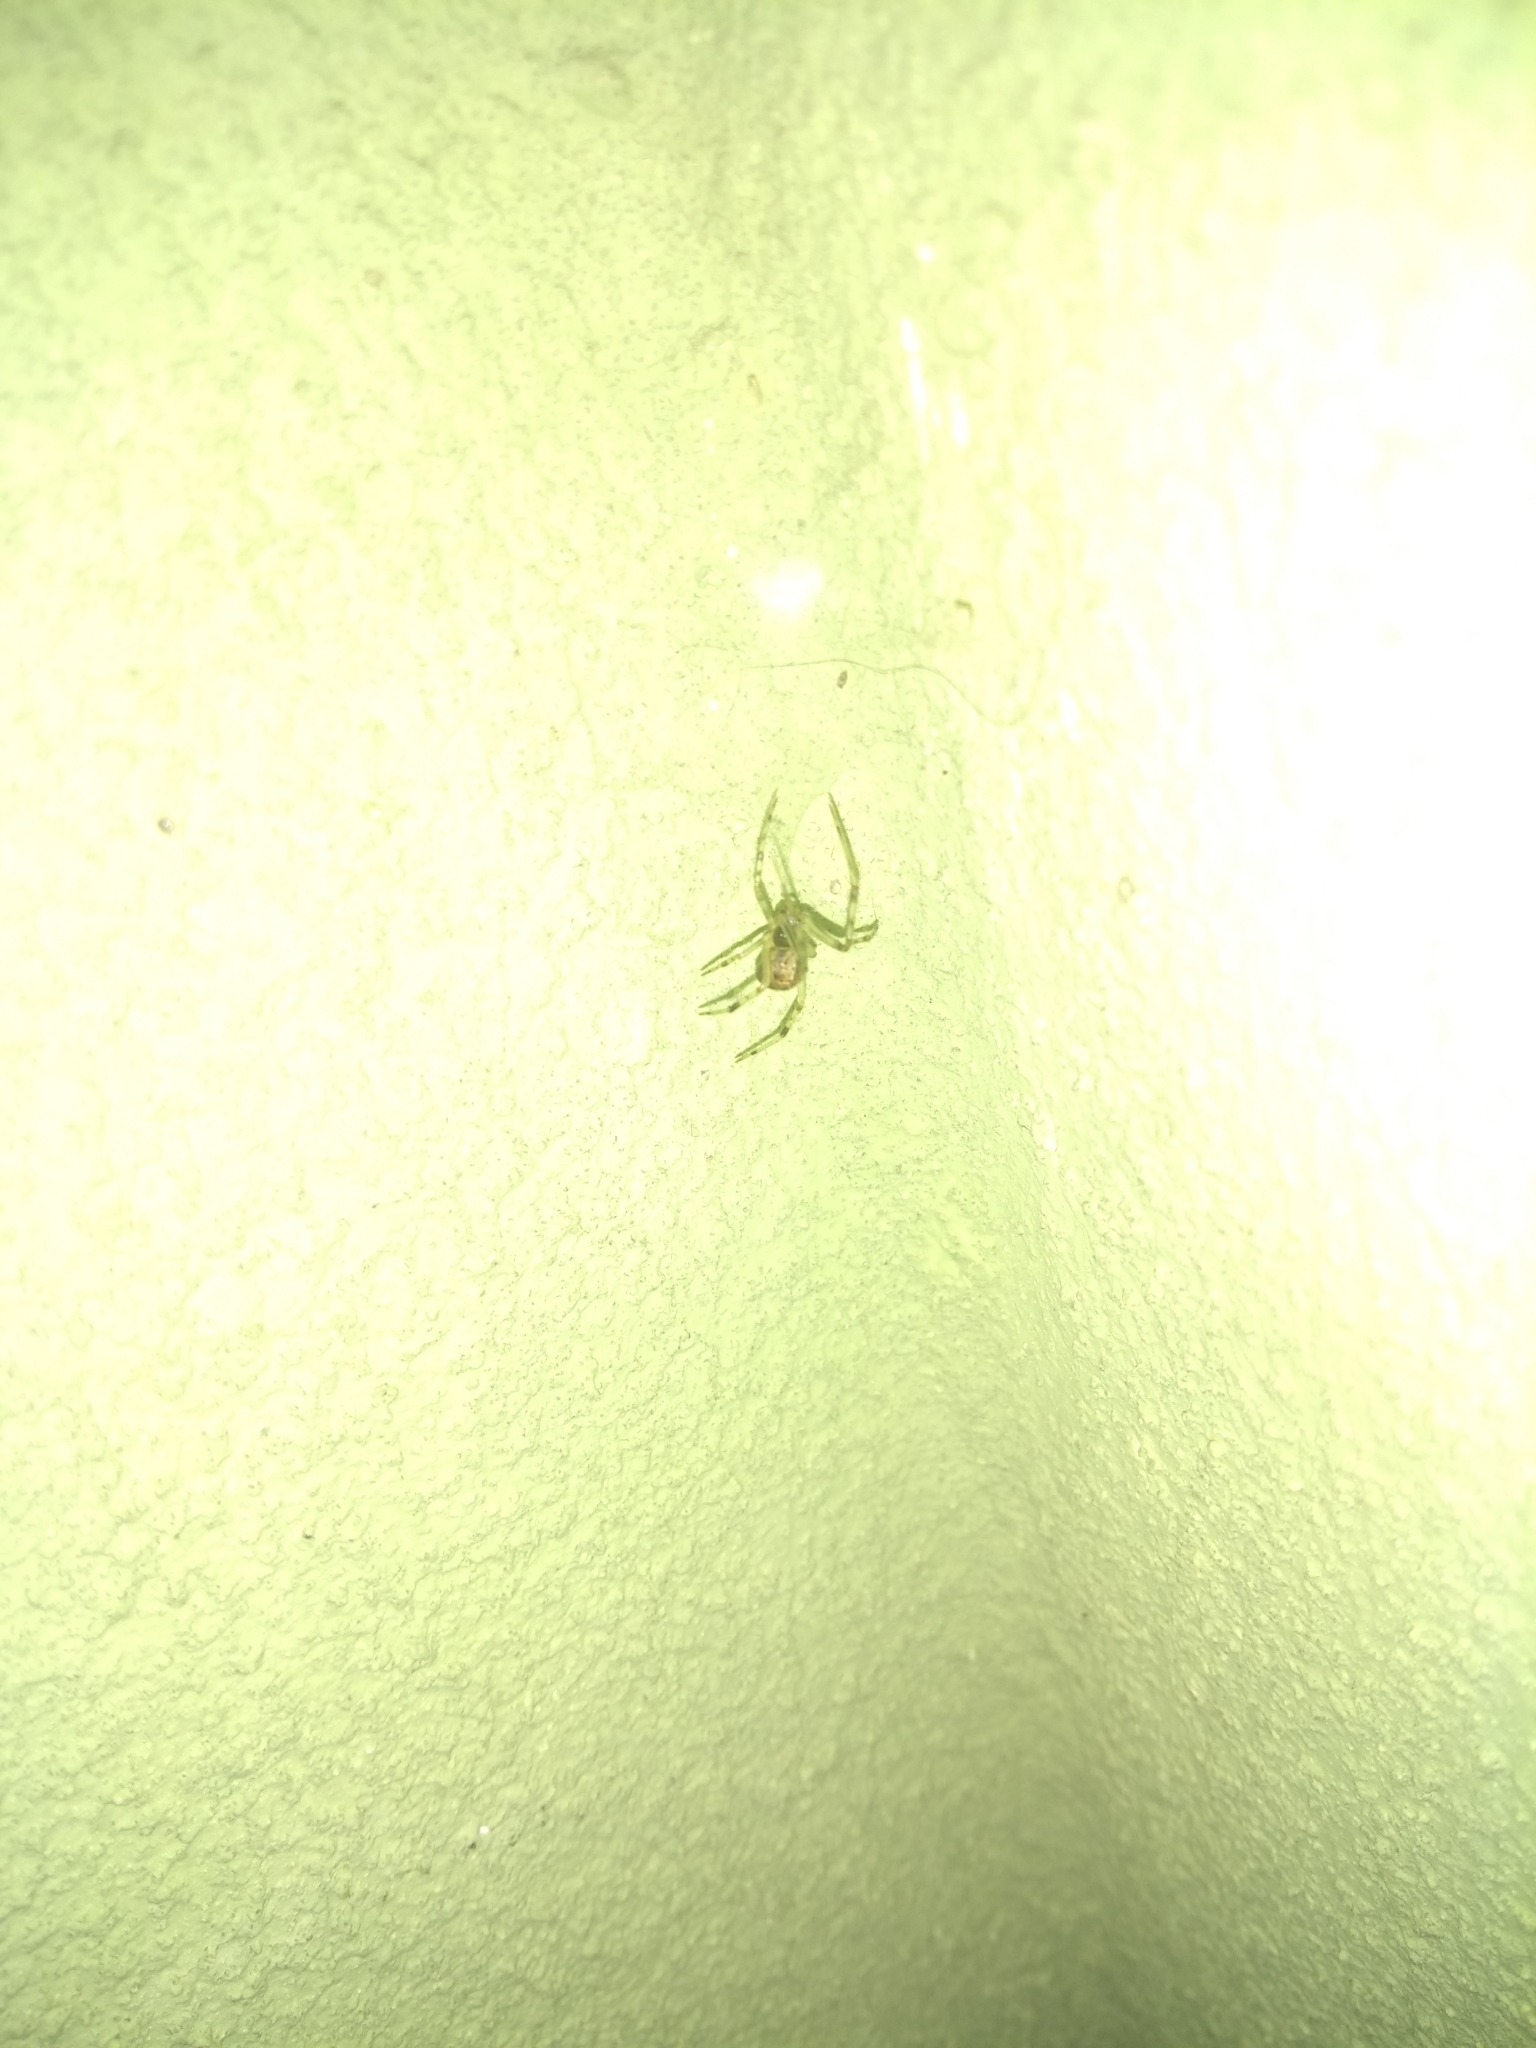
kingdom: Animalia
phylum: Arthropoda
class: Arachnida
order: Araneae
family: Theridiidae
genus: Parasteatoda
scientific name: Parasteatoda tepidariorum
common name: Common house spider
